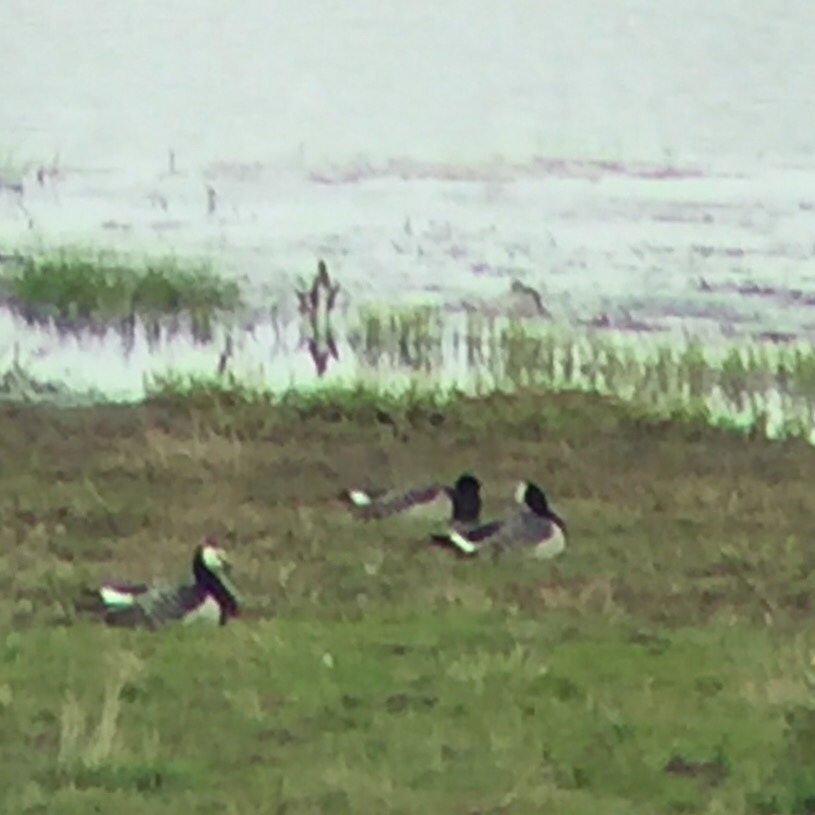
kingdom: Animalia
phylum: Chordata
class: Aves
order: Anseriformes
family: Anatidae
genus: Branta
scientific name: Branta leucopsis
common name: Barnacle goose
